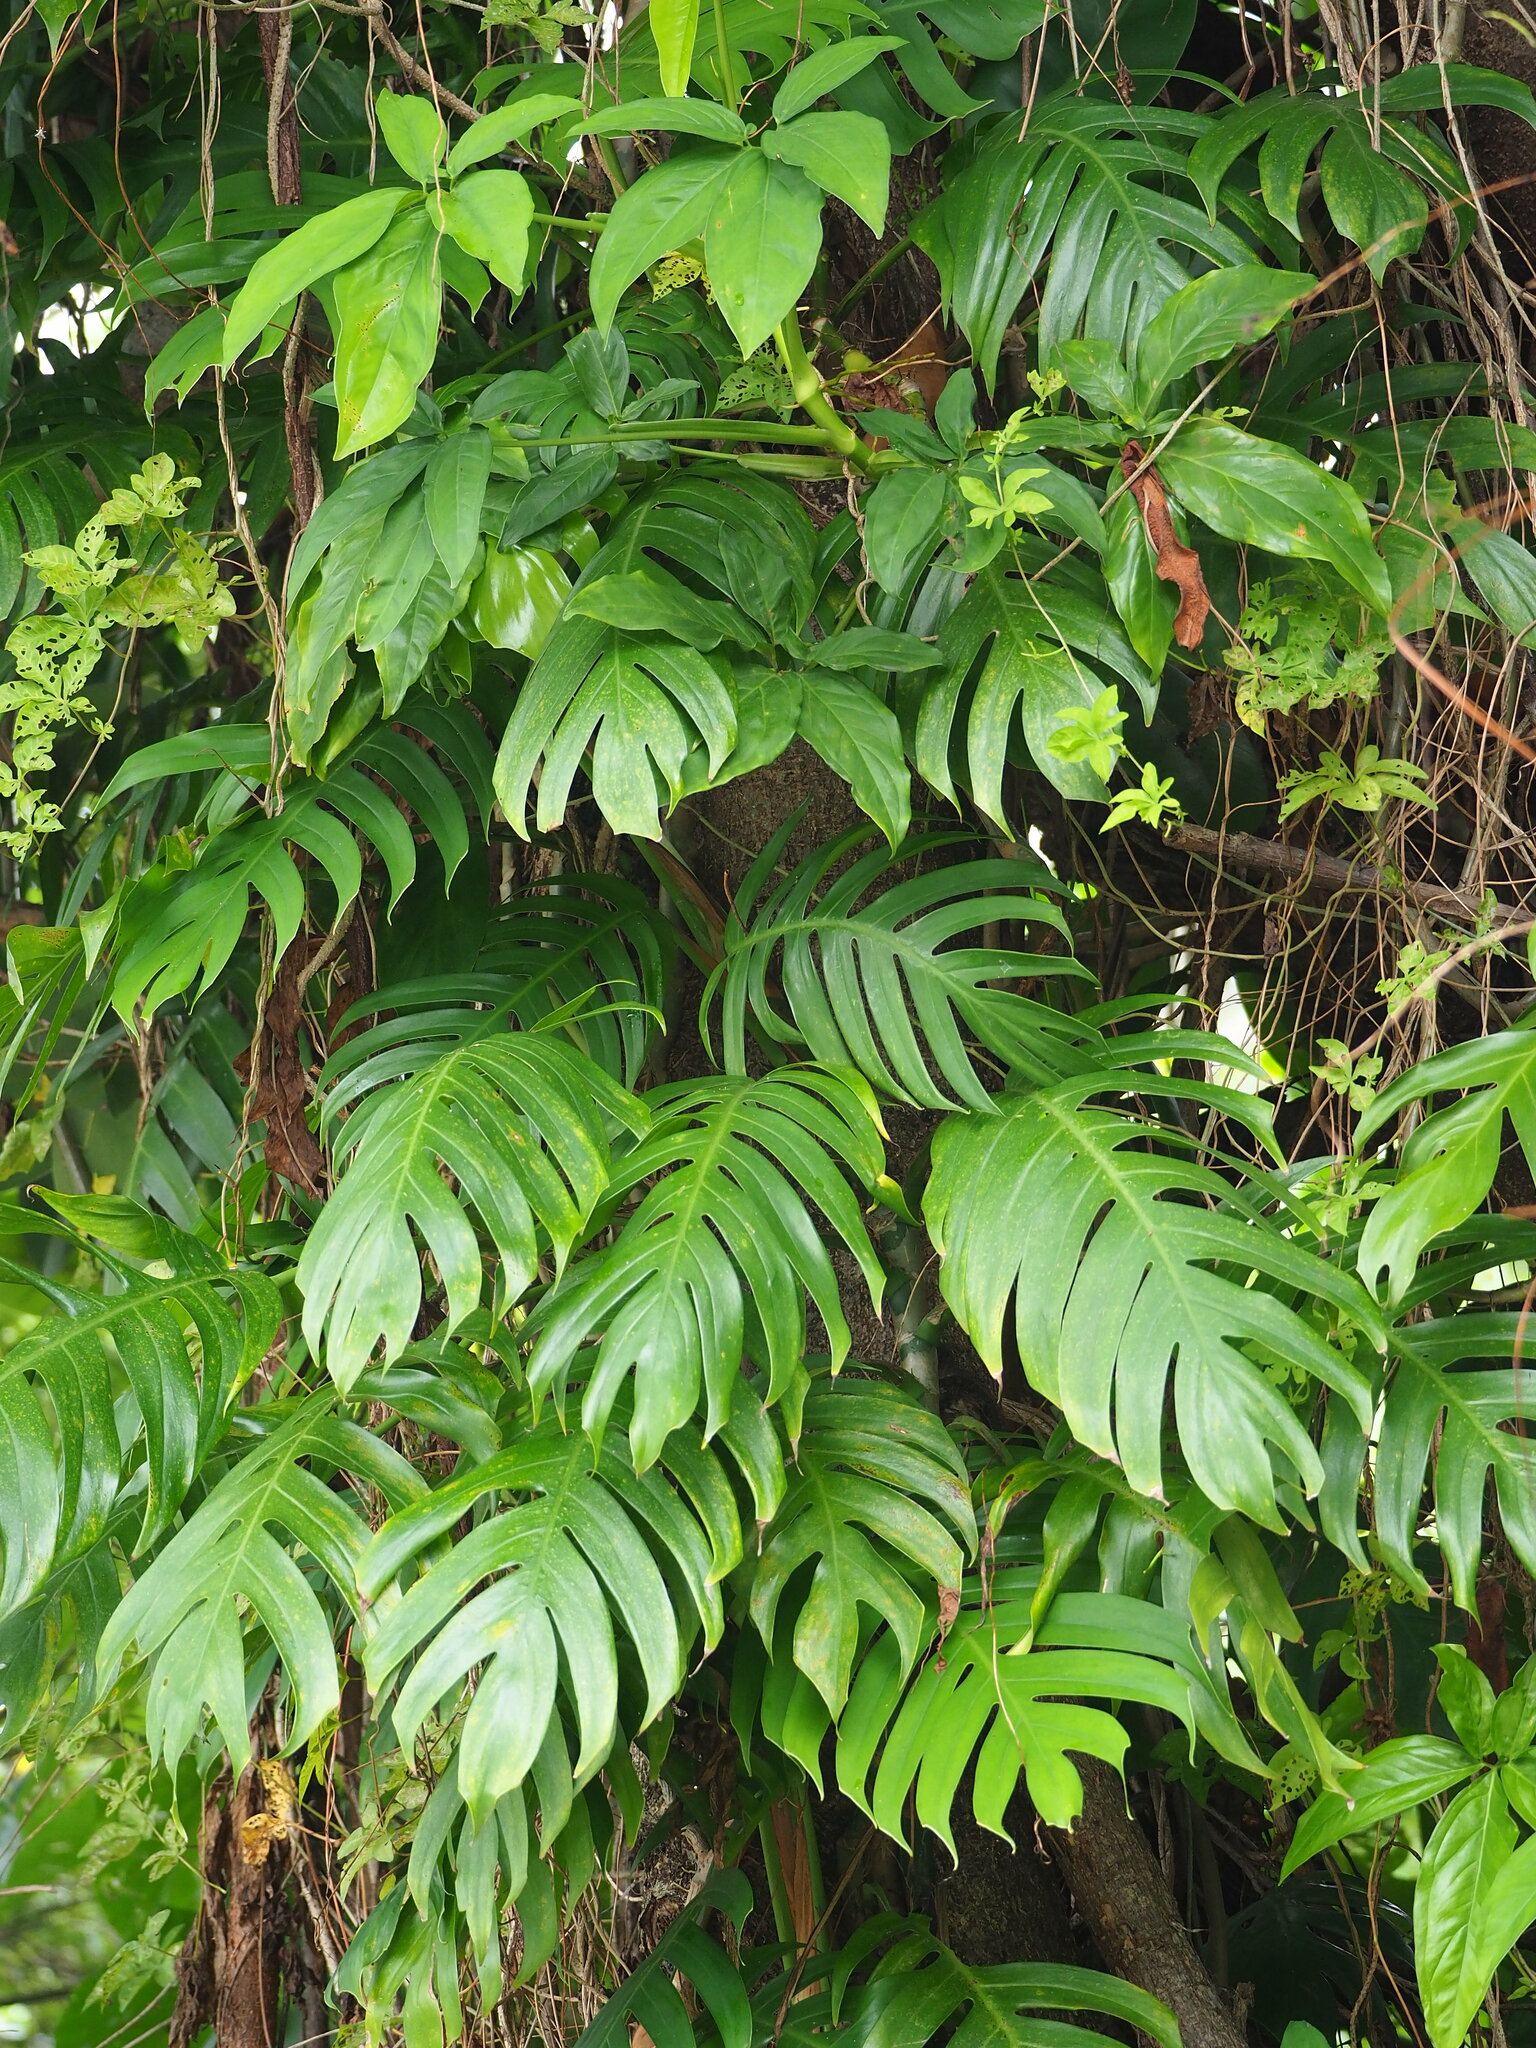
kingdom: Plantae
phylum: Tracheophyta
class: Liliopsida
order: Alismatales
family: Araceae
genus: Epipremnum
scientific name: Epipremnum pinnatum
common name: Centipede tongavine
